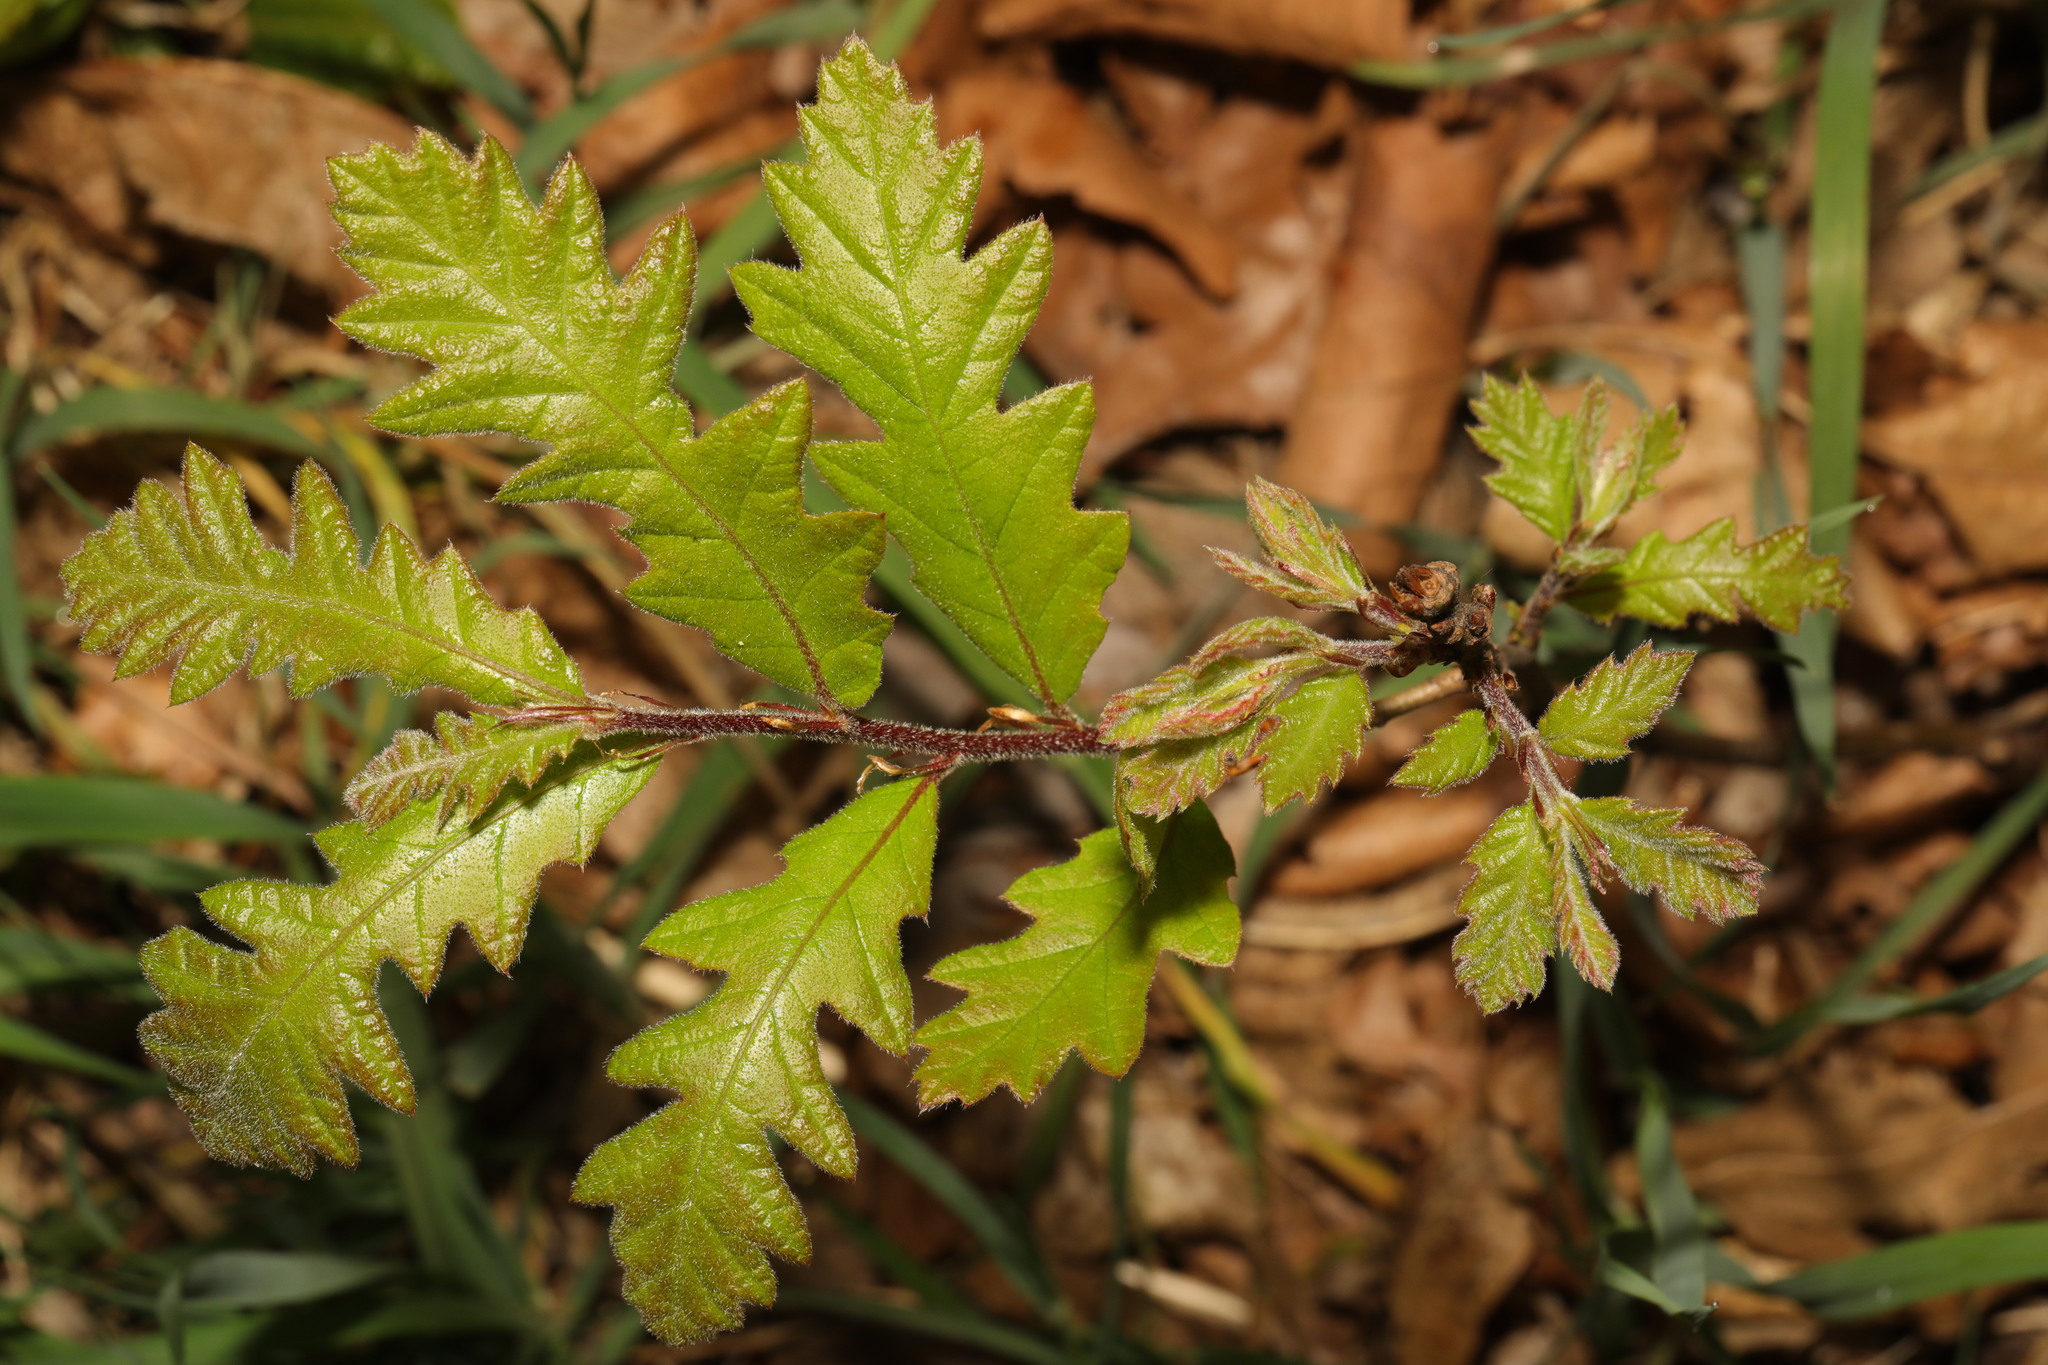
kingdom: Plantae
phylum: Tracheophyta
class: Magnoliopsida
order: Fagales
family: Fagaceae
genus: Quercus
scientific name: Quercus cerris
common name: Turkey oak
